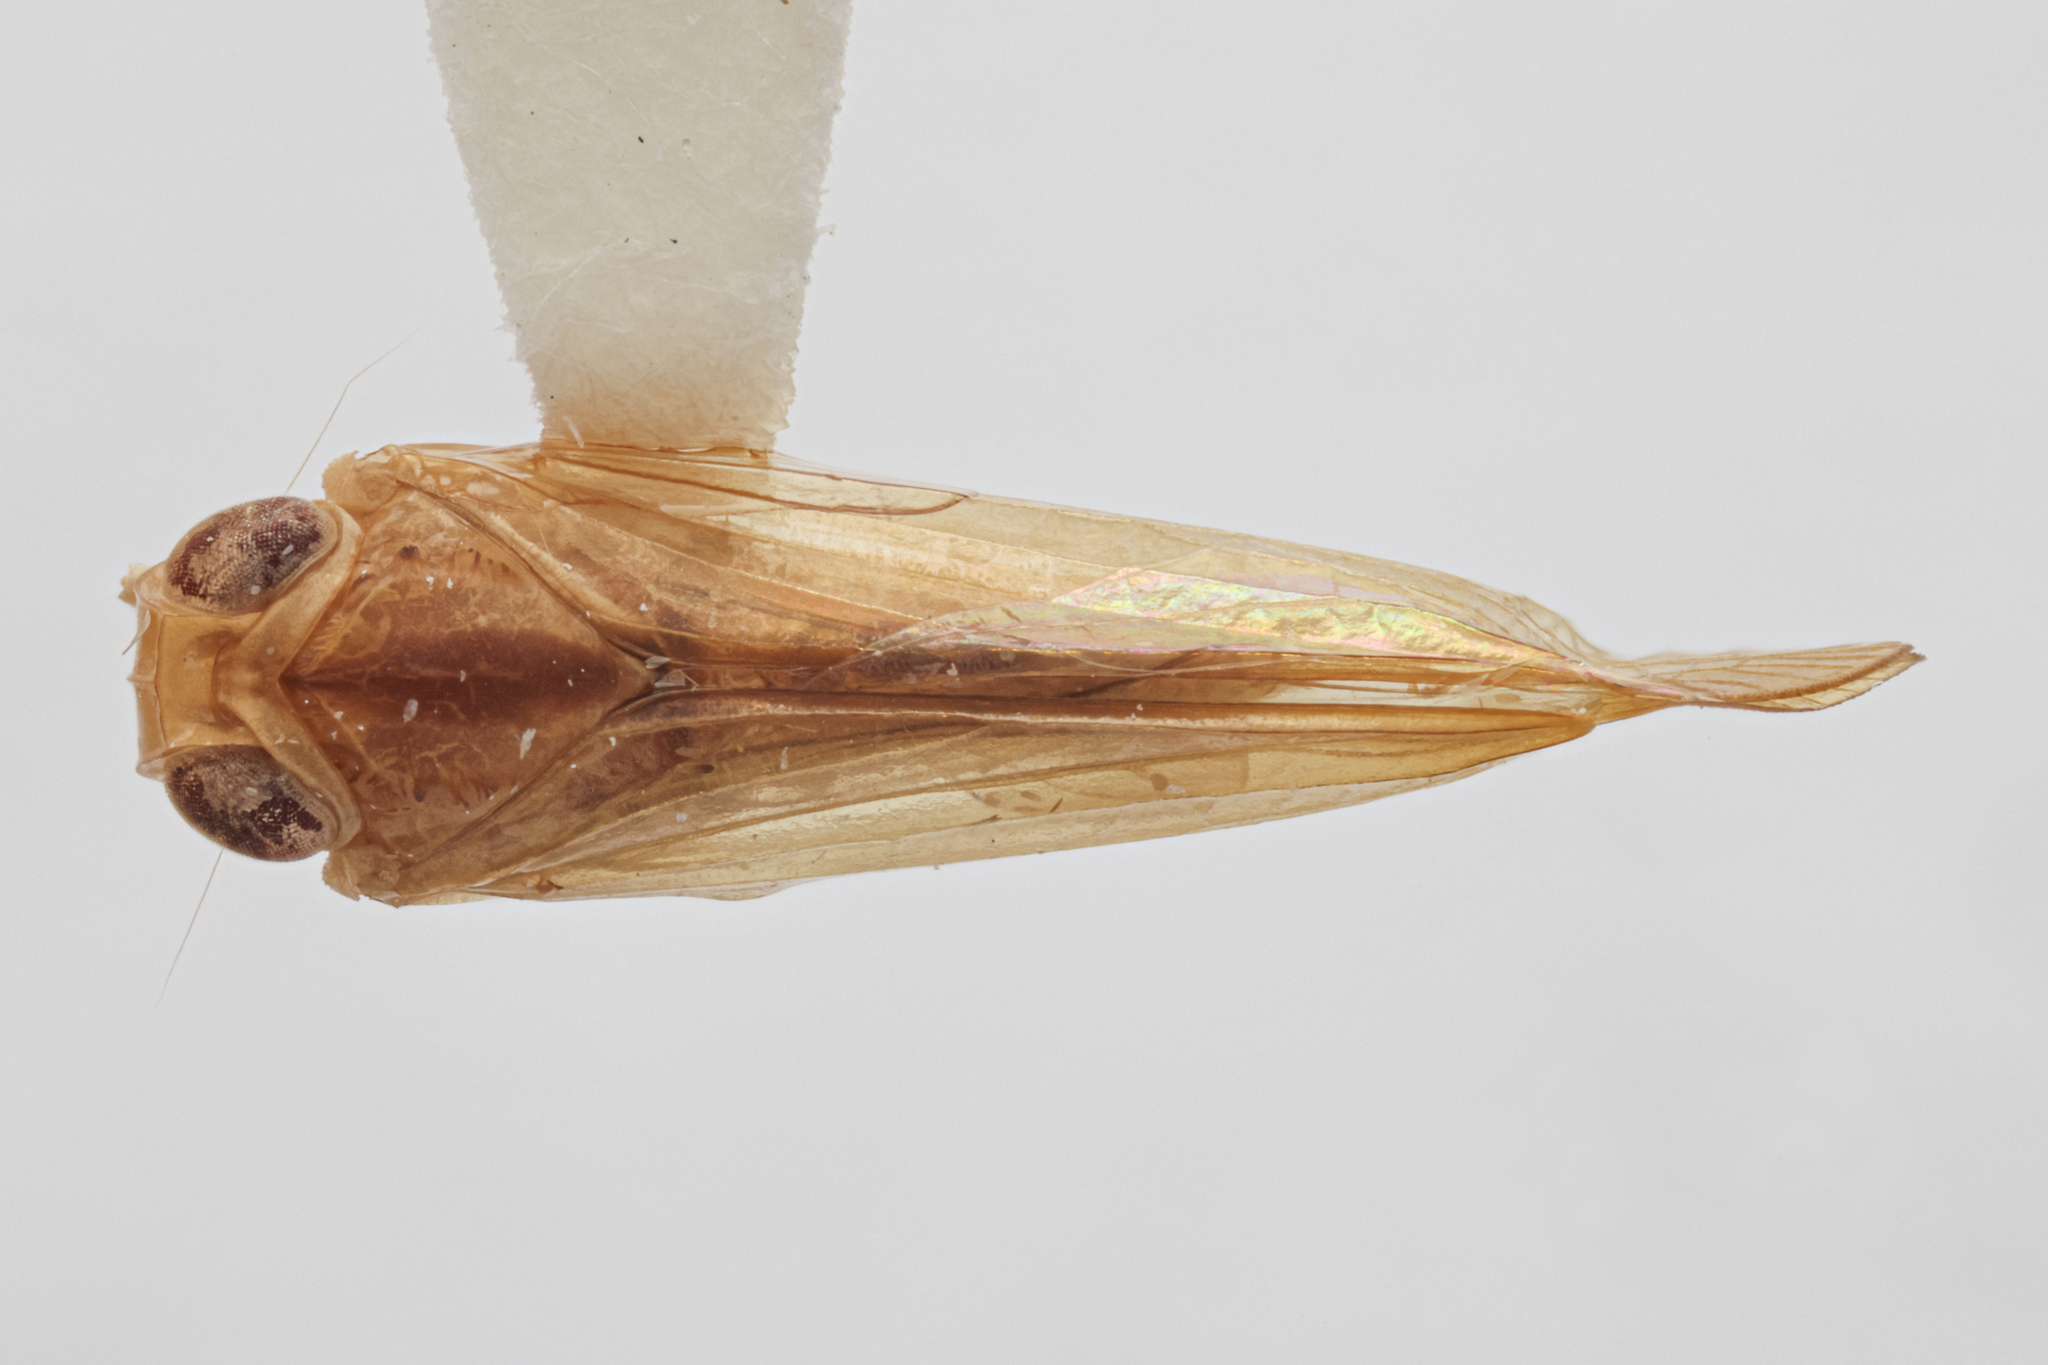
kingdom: Animalia
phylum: Arthropoda
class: Insecta
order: Hemiptera
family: Nogodinidae
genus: Ugoa
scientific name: Ugoa glauca
